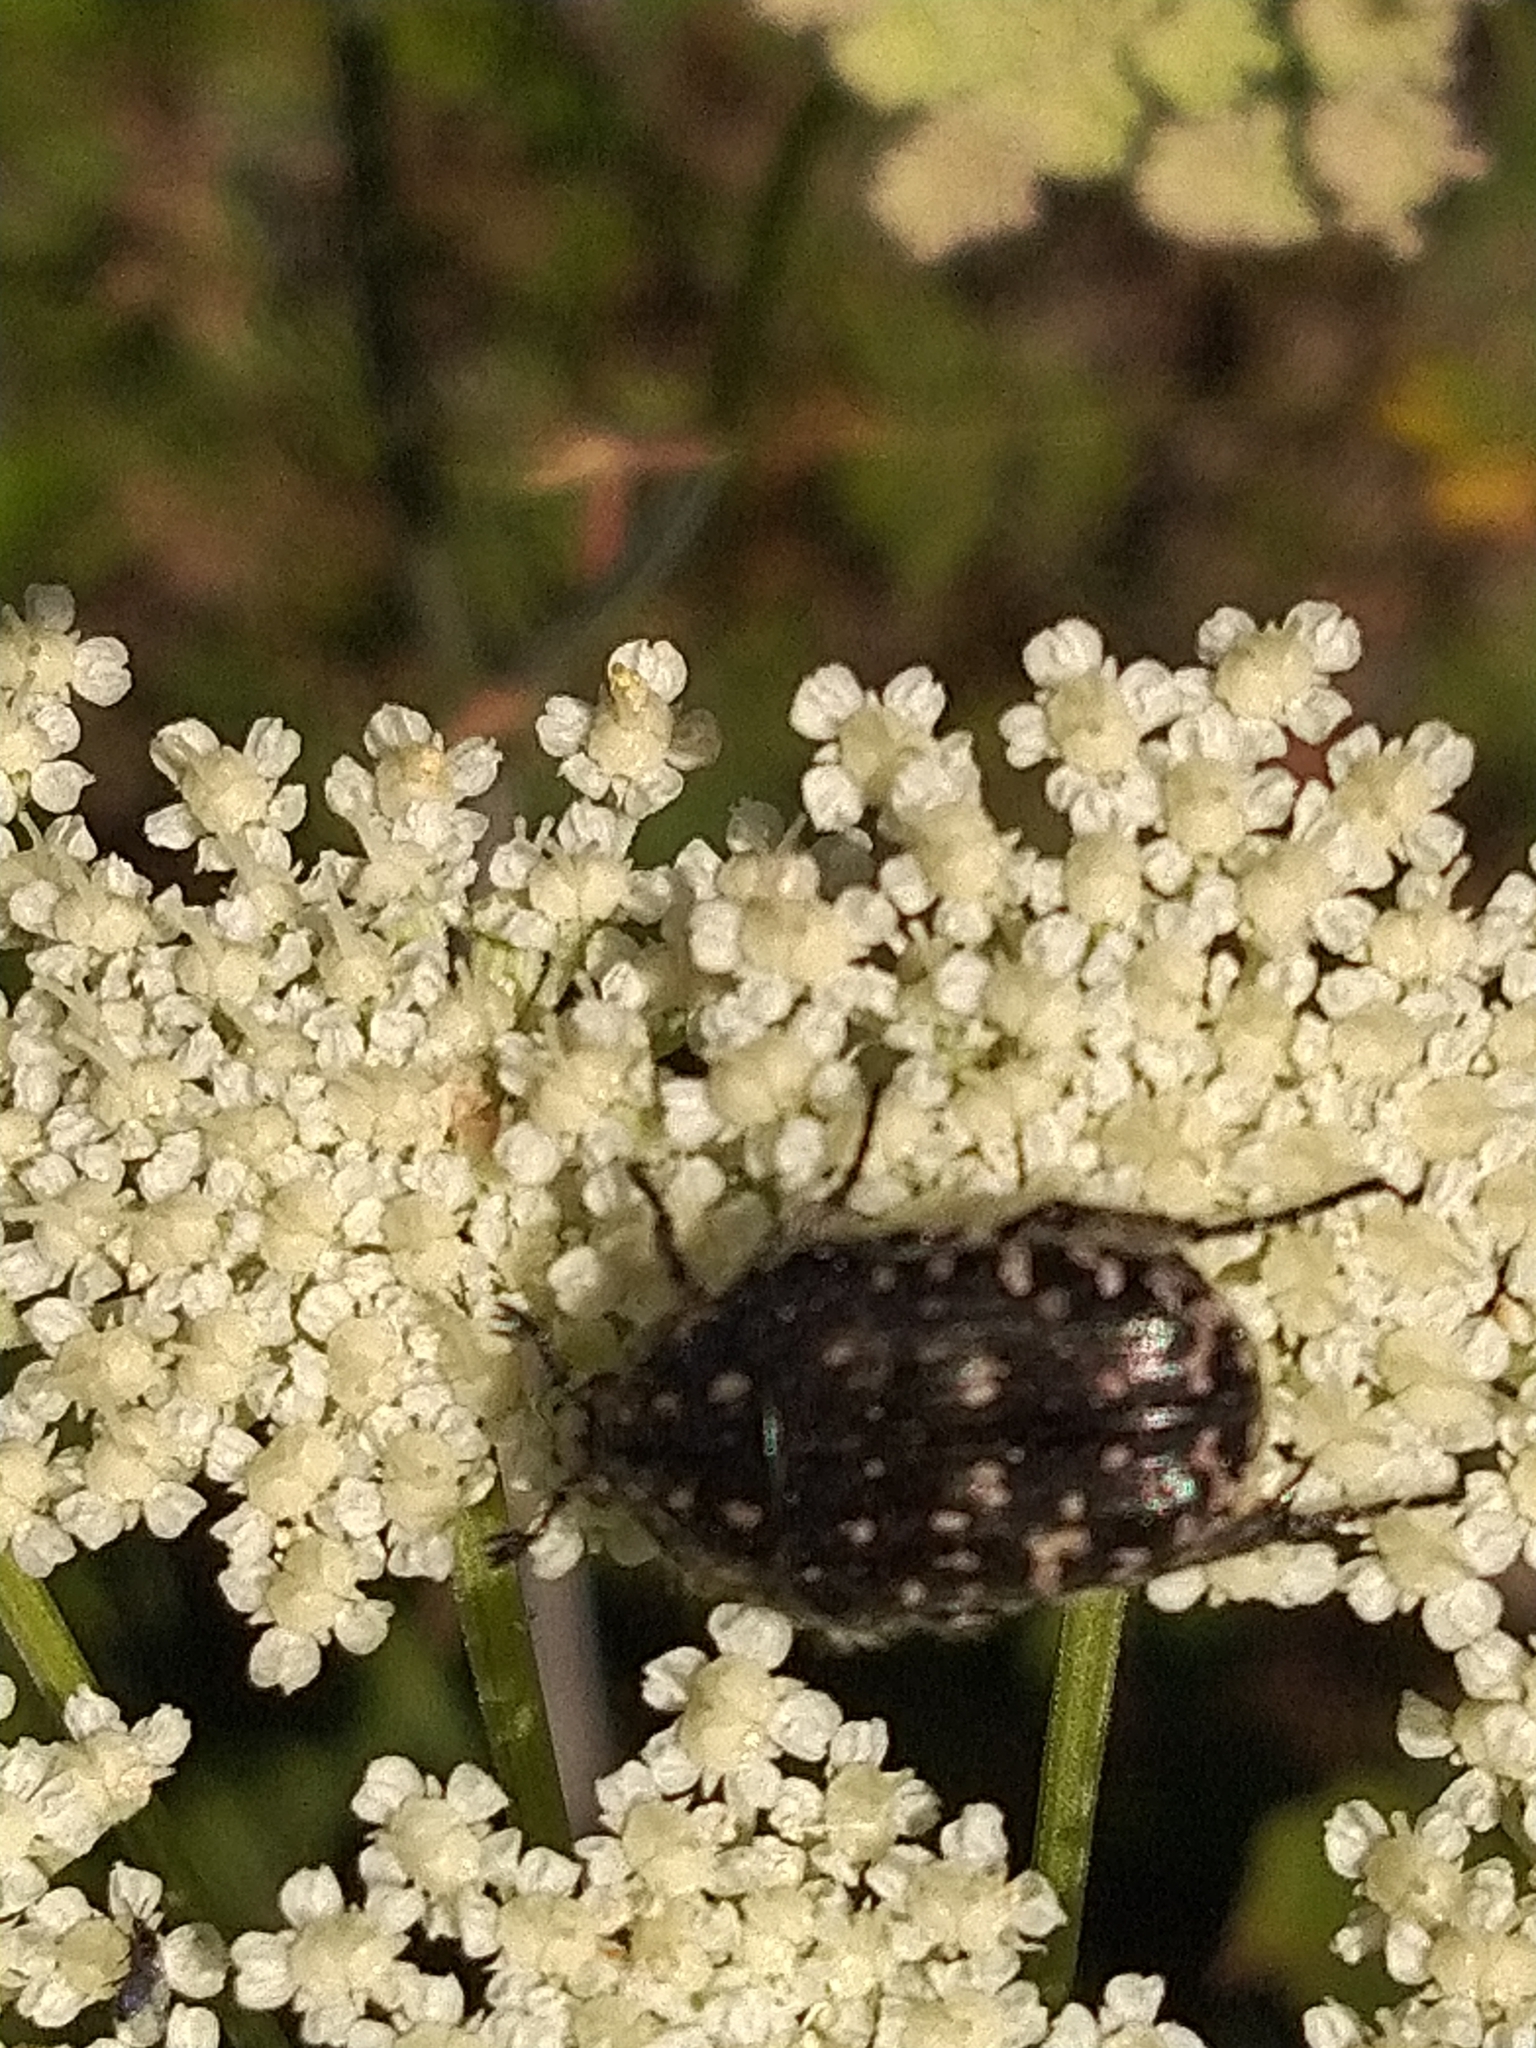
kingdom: Animalia
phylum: Arthropoda
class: Insecta
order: Coleoptera
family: Scarabaeidae
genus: Oxythyrea
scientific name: Oxythyrea funesta
